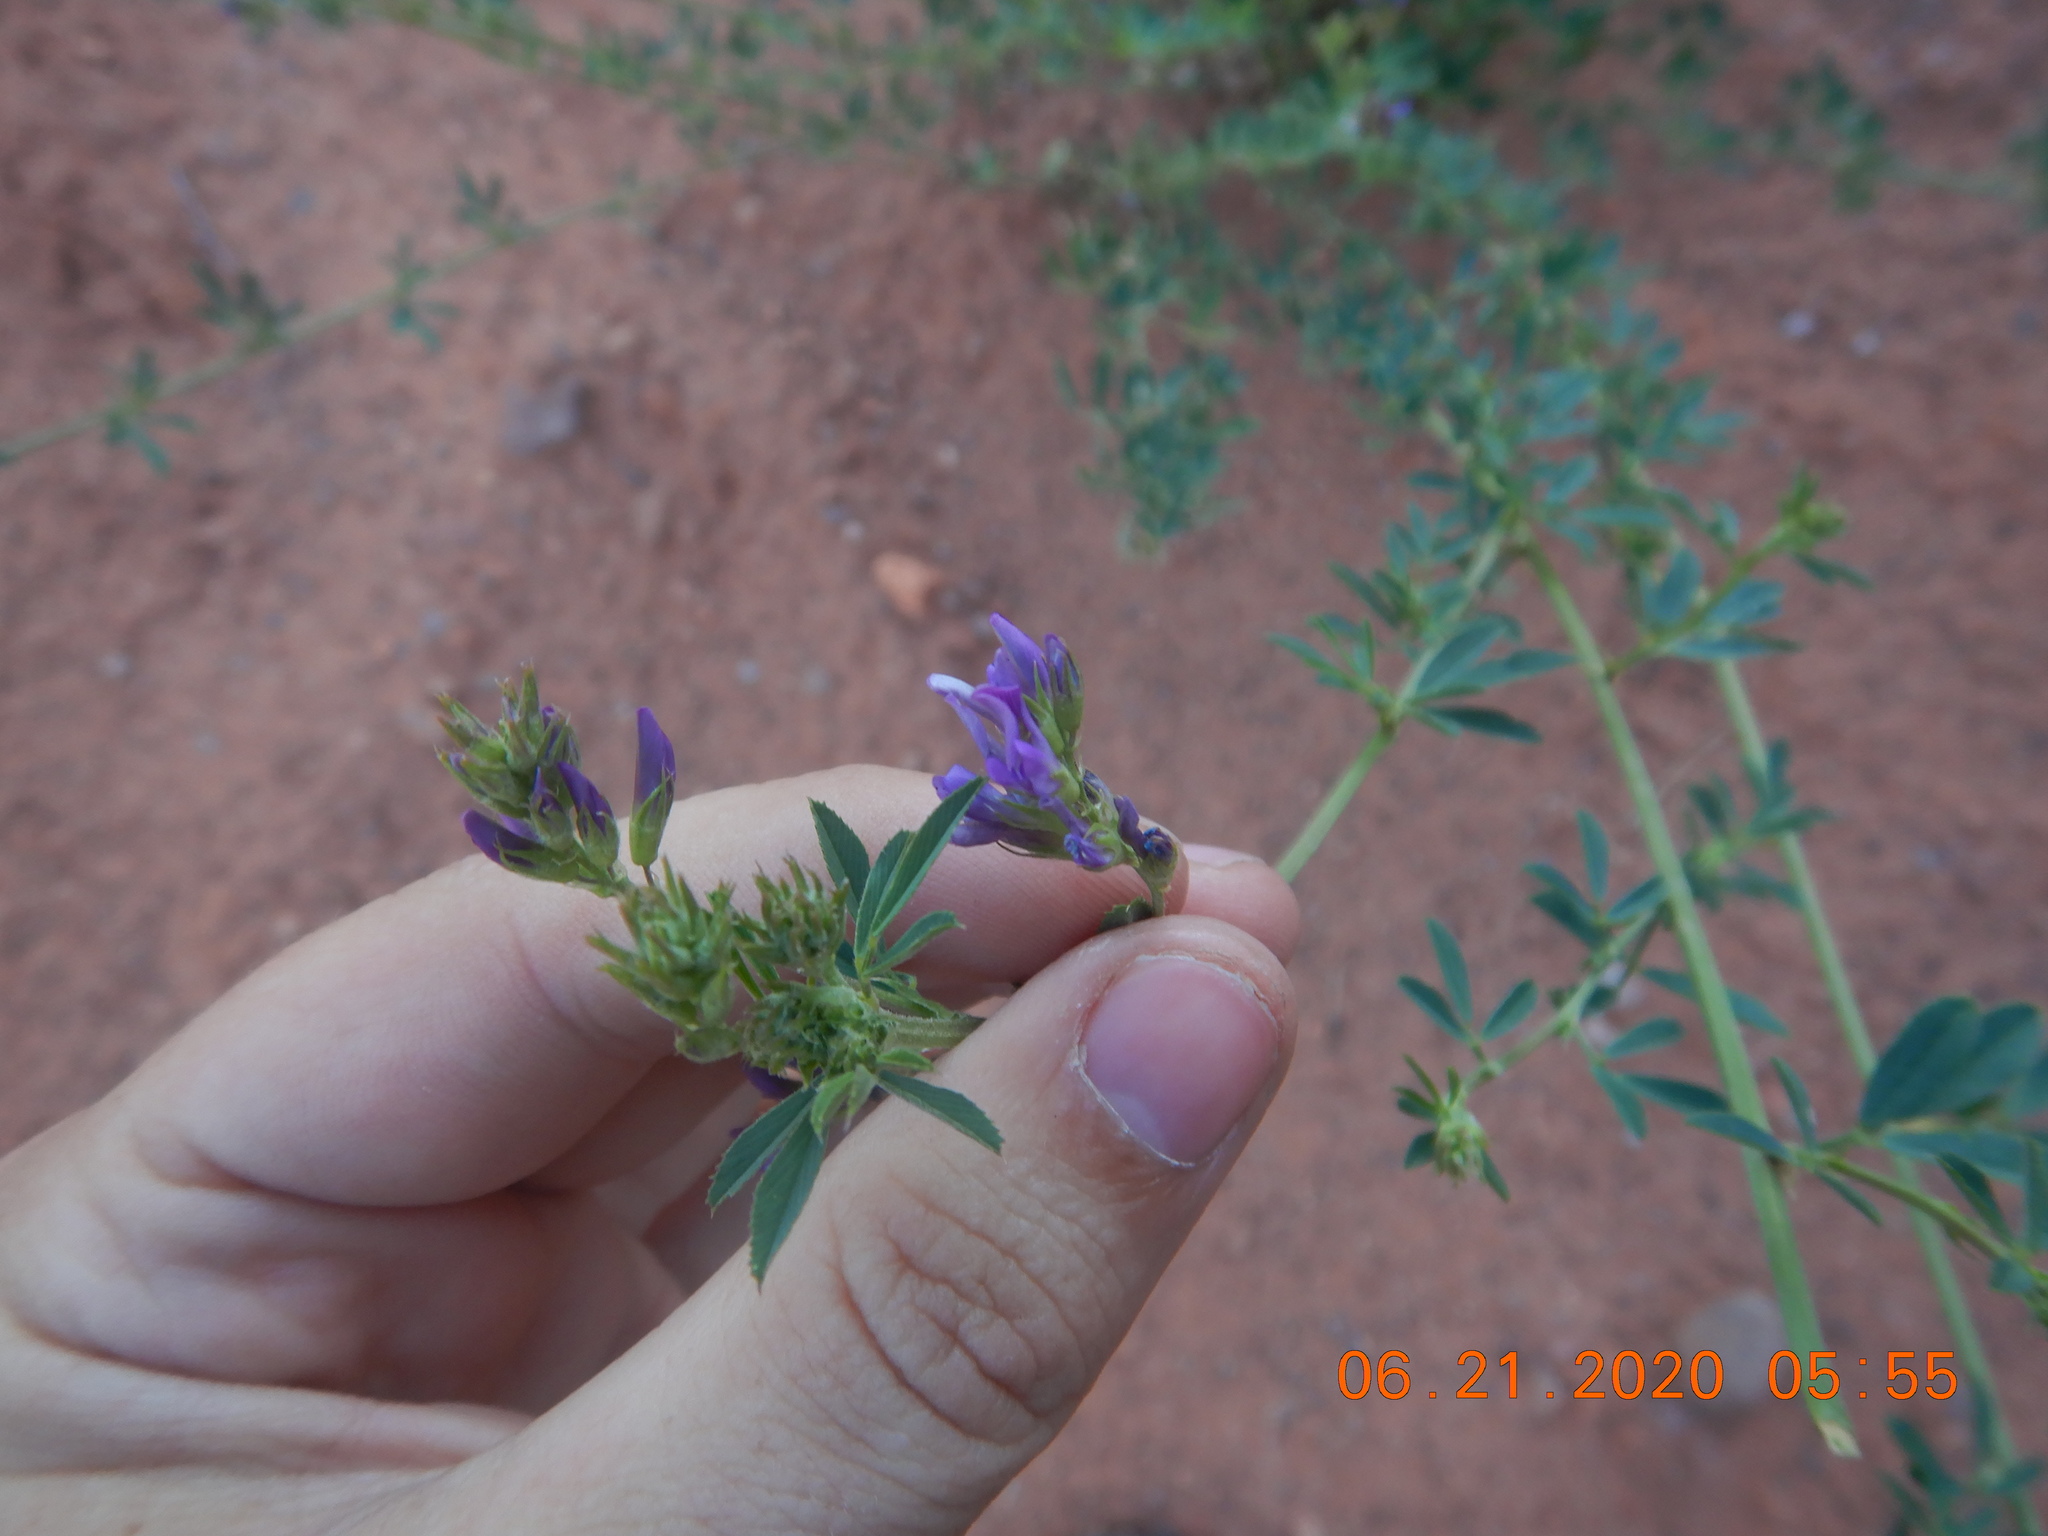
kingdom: Plantae
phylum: Tracheophyta
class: Magnoliopsida
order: Fabales
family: Fabaceae
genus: Medicago
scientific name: Medicago sativa
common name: Alfalfa
